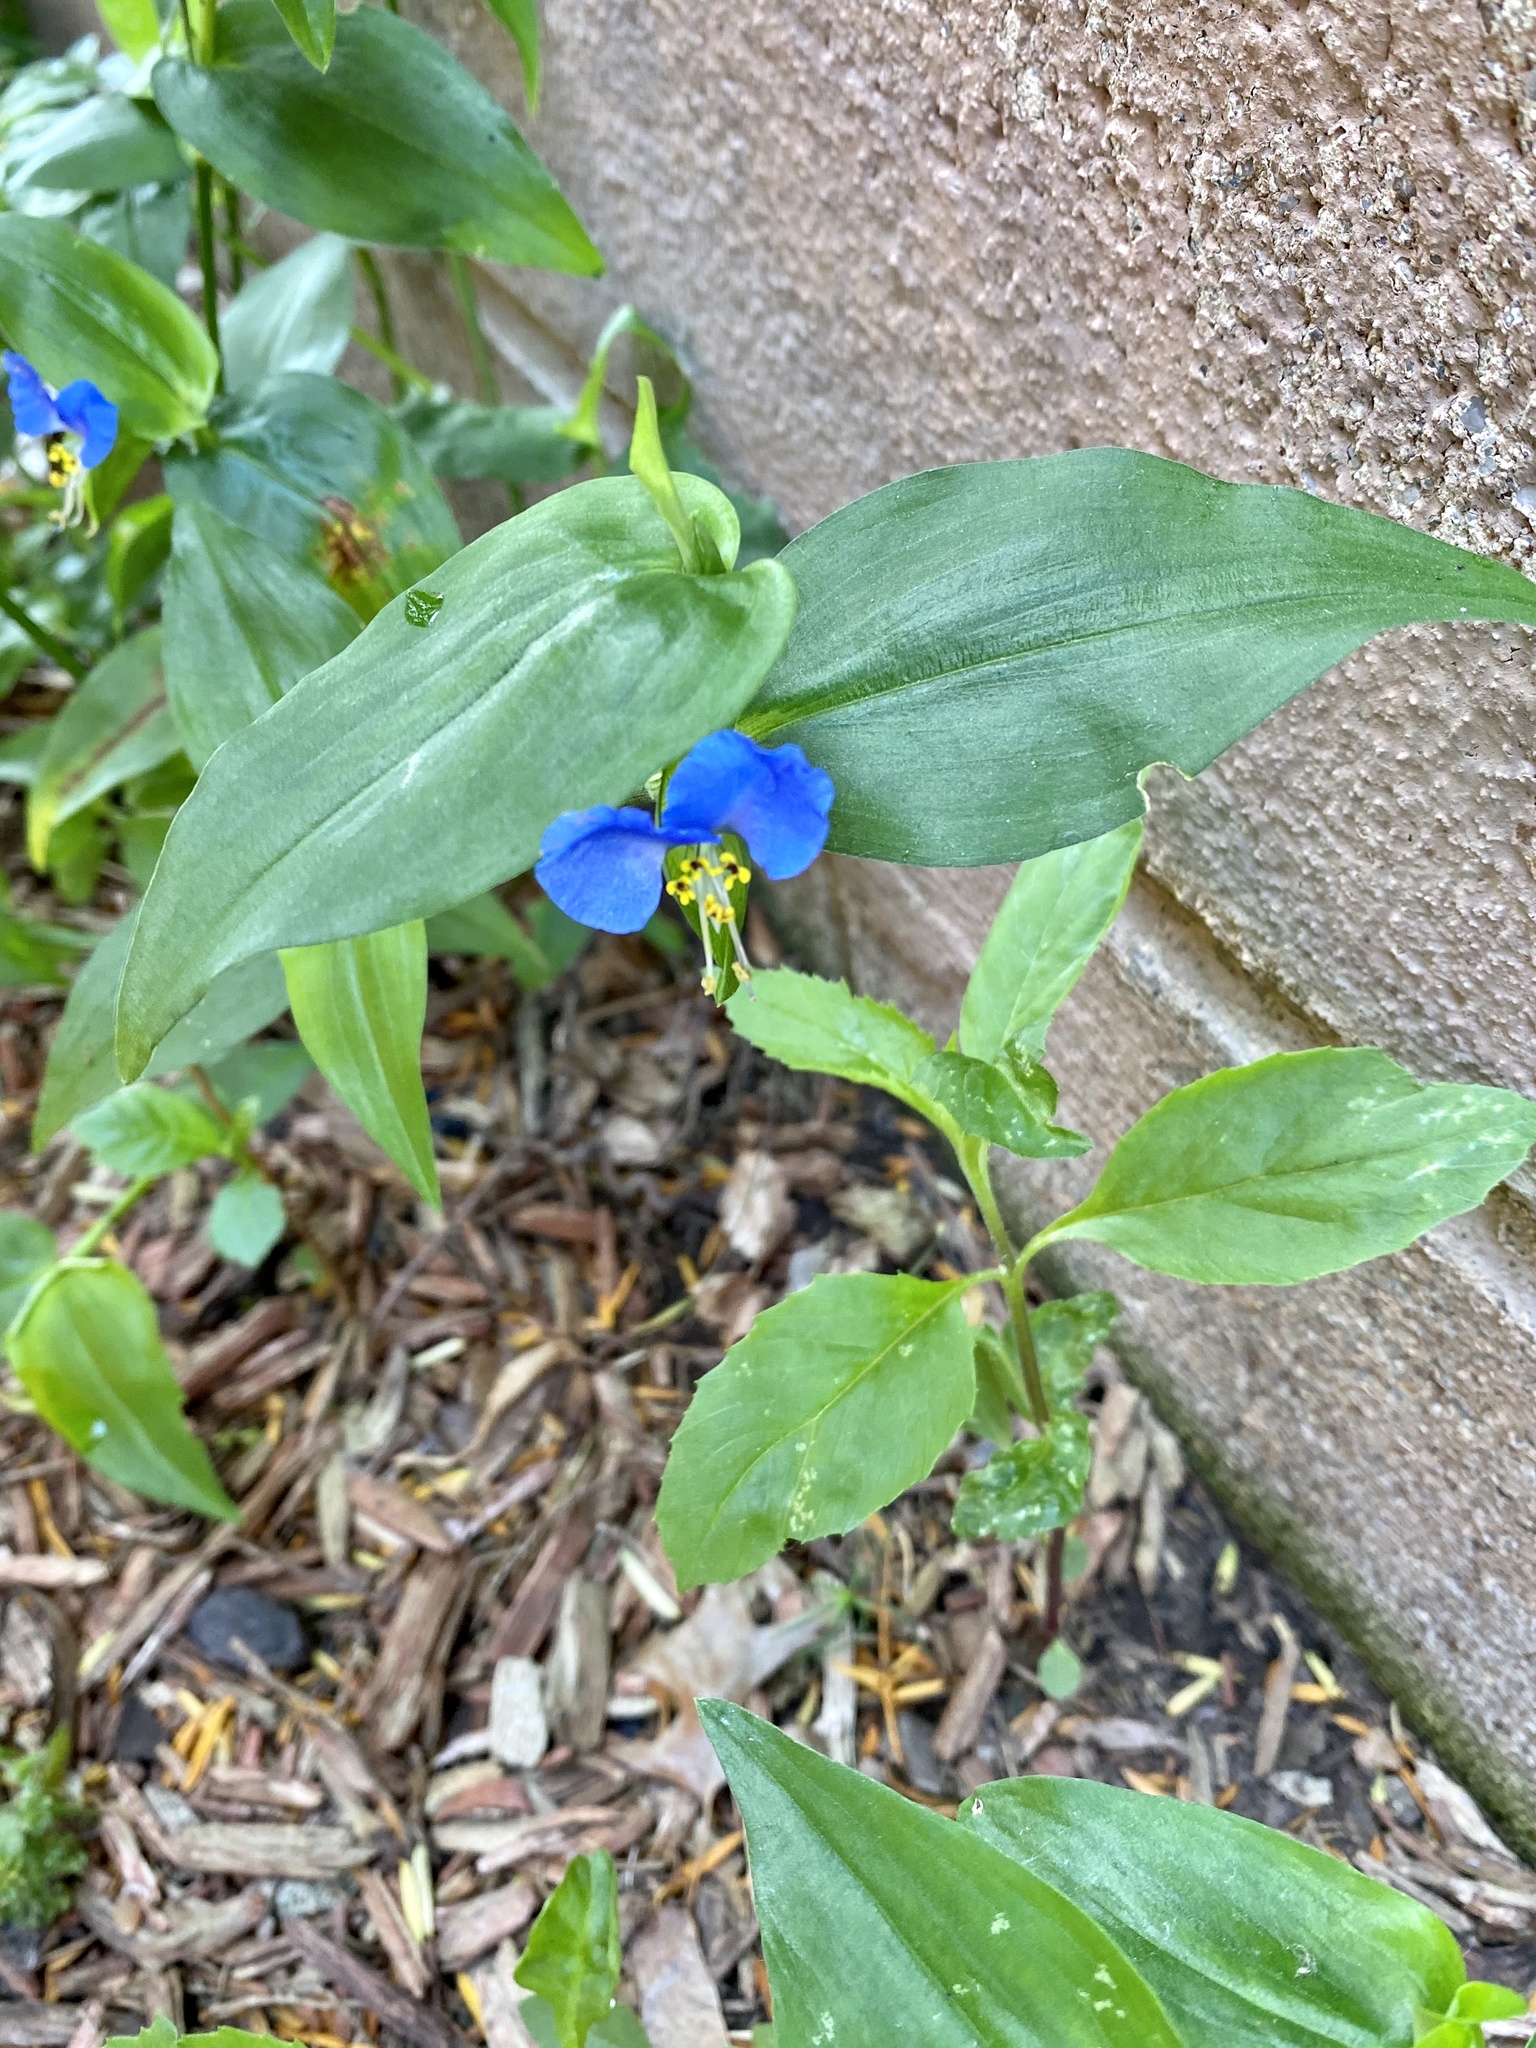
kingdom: Plantae
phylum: Tracheophyta
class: Liliopsida
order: Commelinales
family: Commelinaceae
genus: Commelina
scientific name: Commelina communis
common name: Asiatic dayflower
